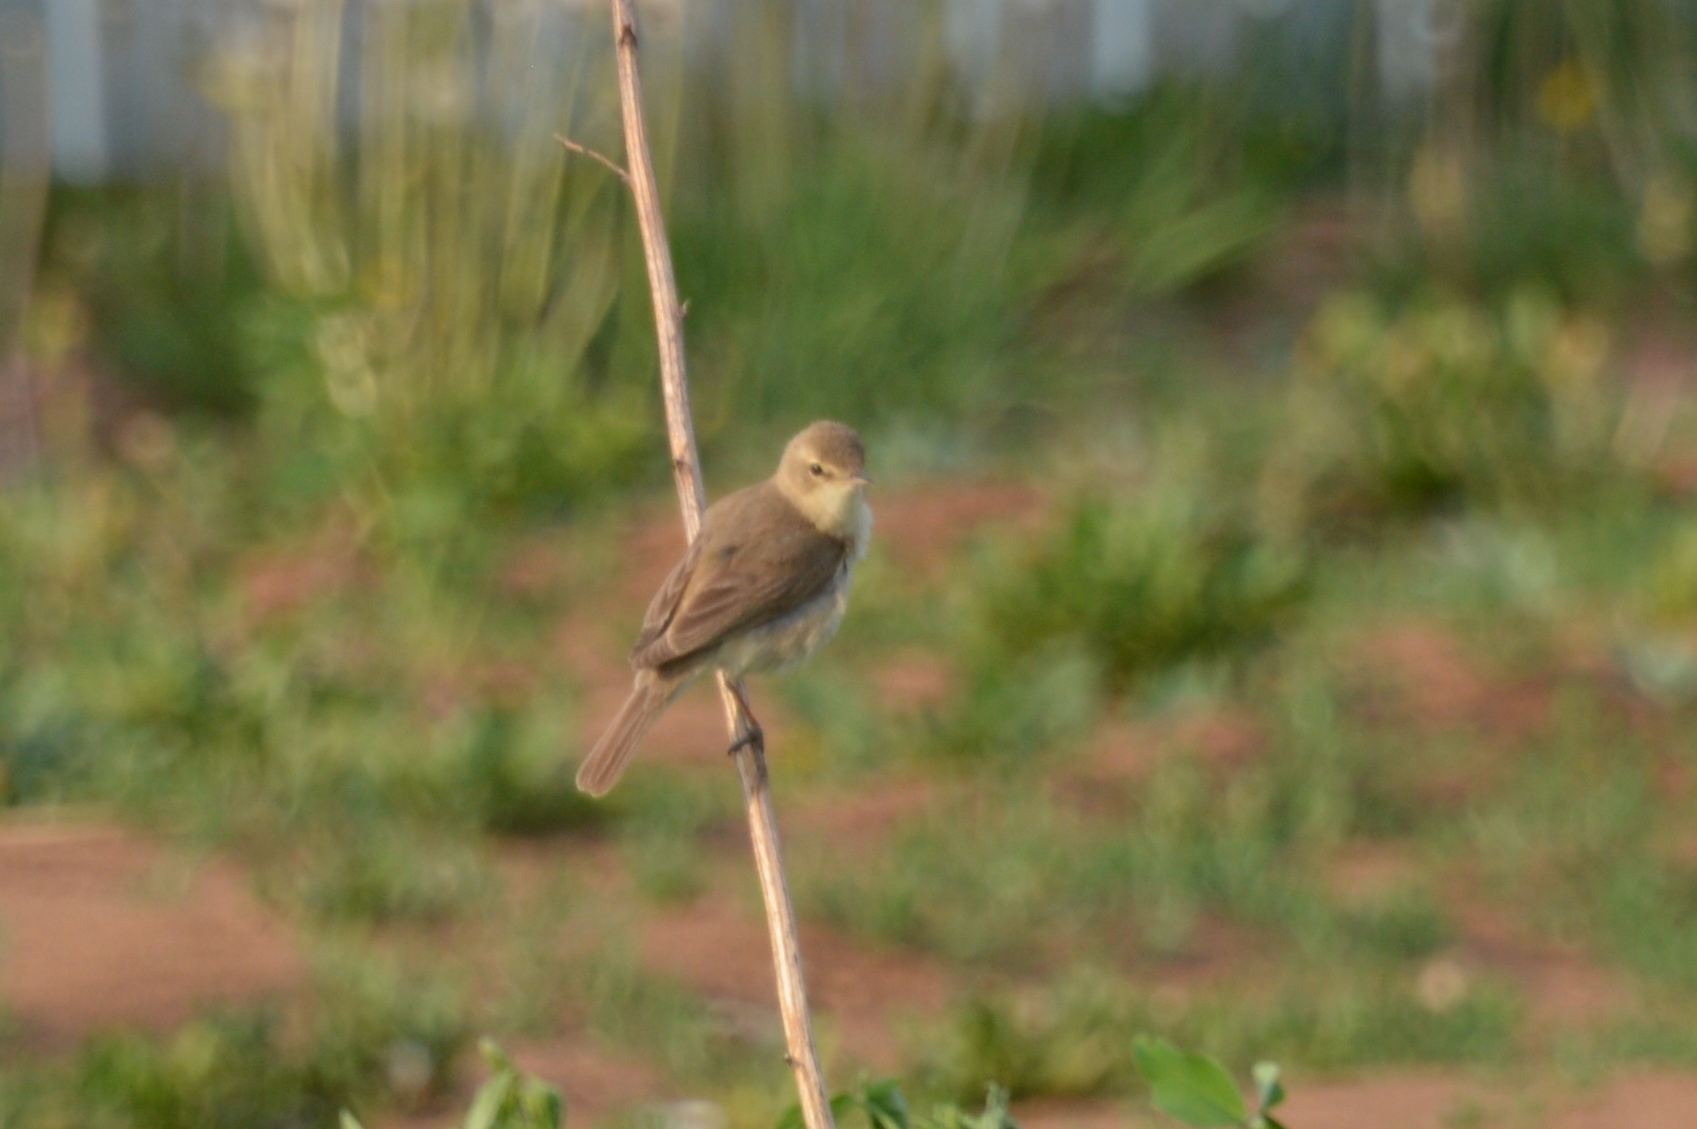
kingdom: Animalia
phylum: Chordata
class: Aves
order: Passeriformes
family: Acrocephalidae
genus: Iduna
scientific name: Iduna caligata
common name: Booted warbler
